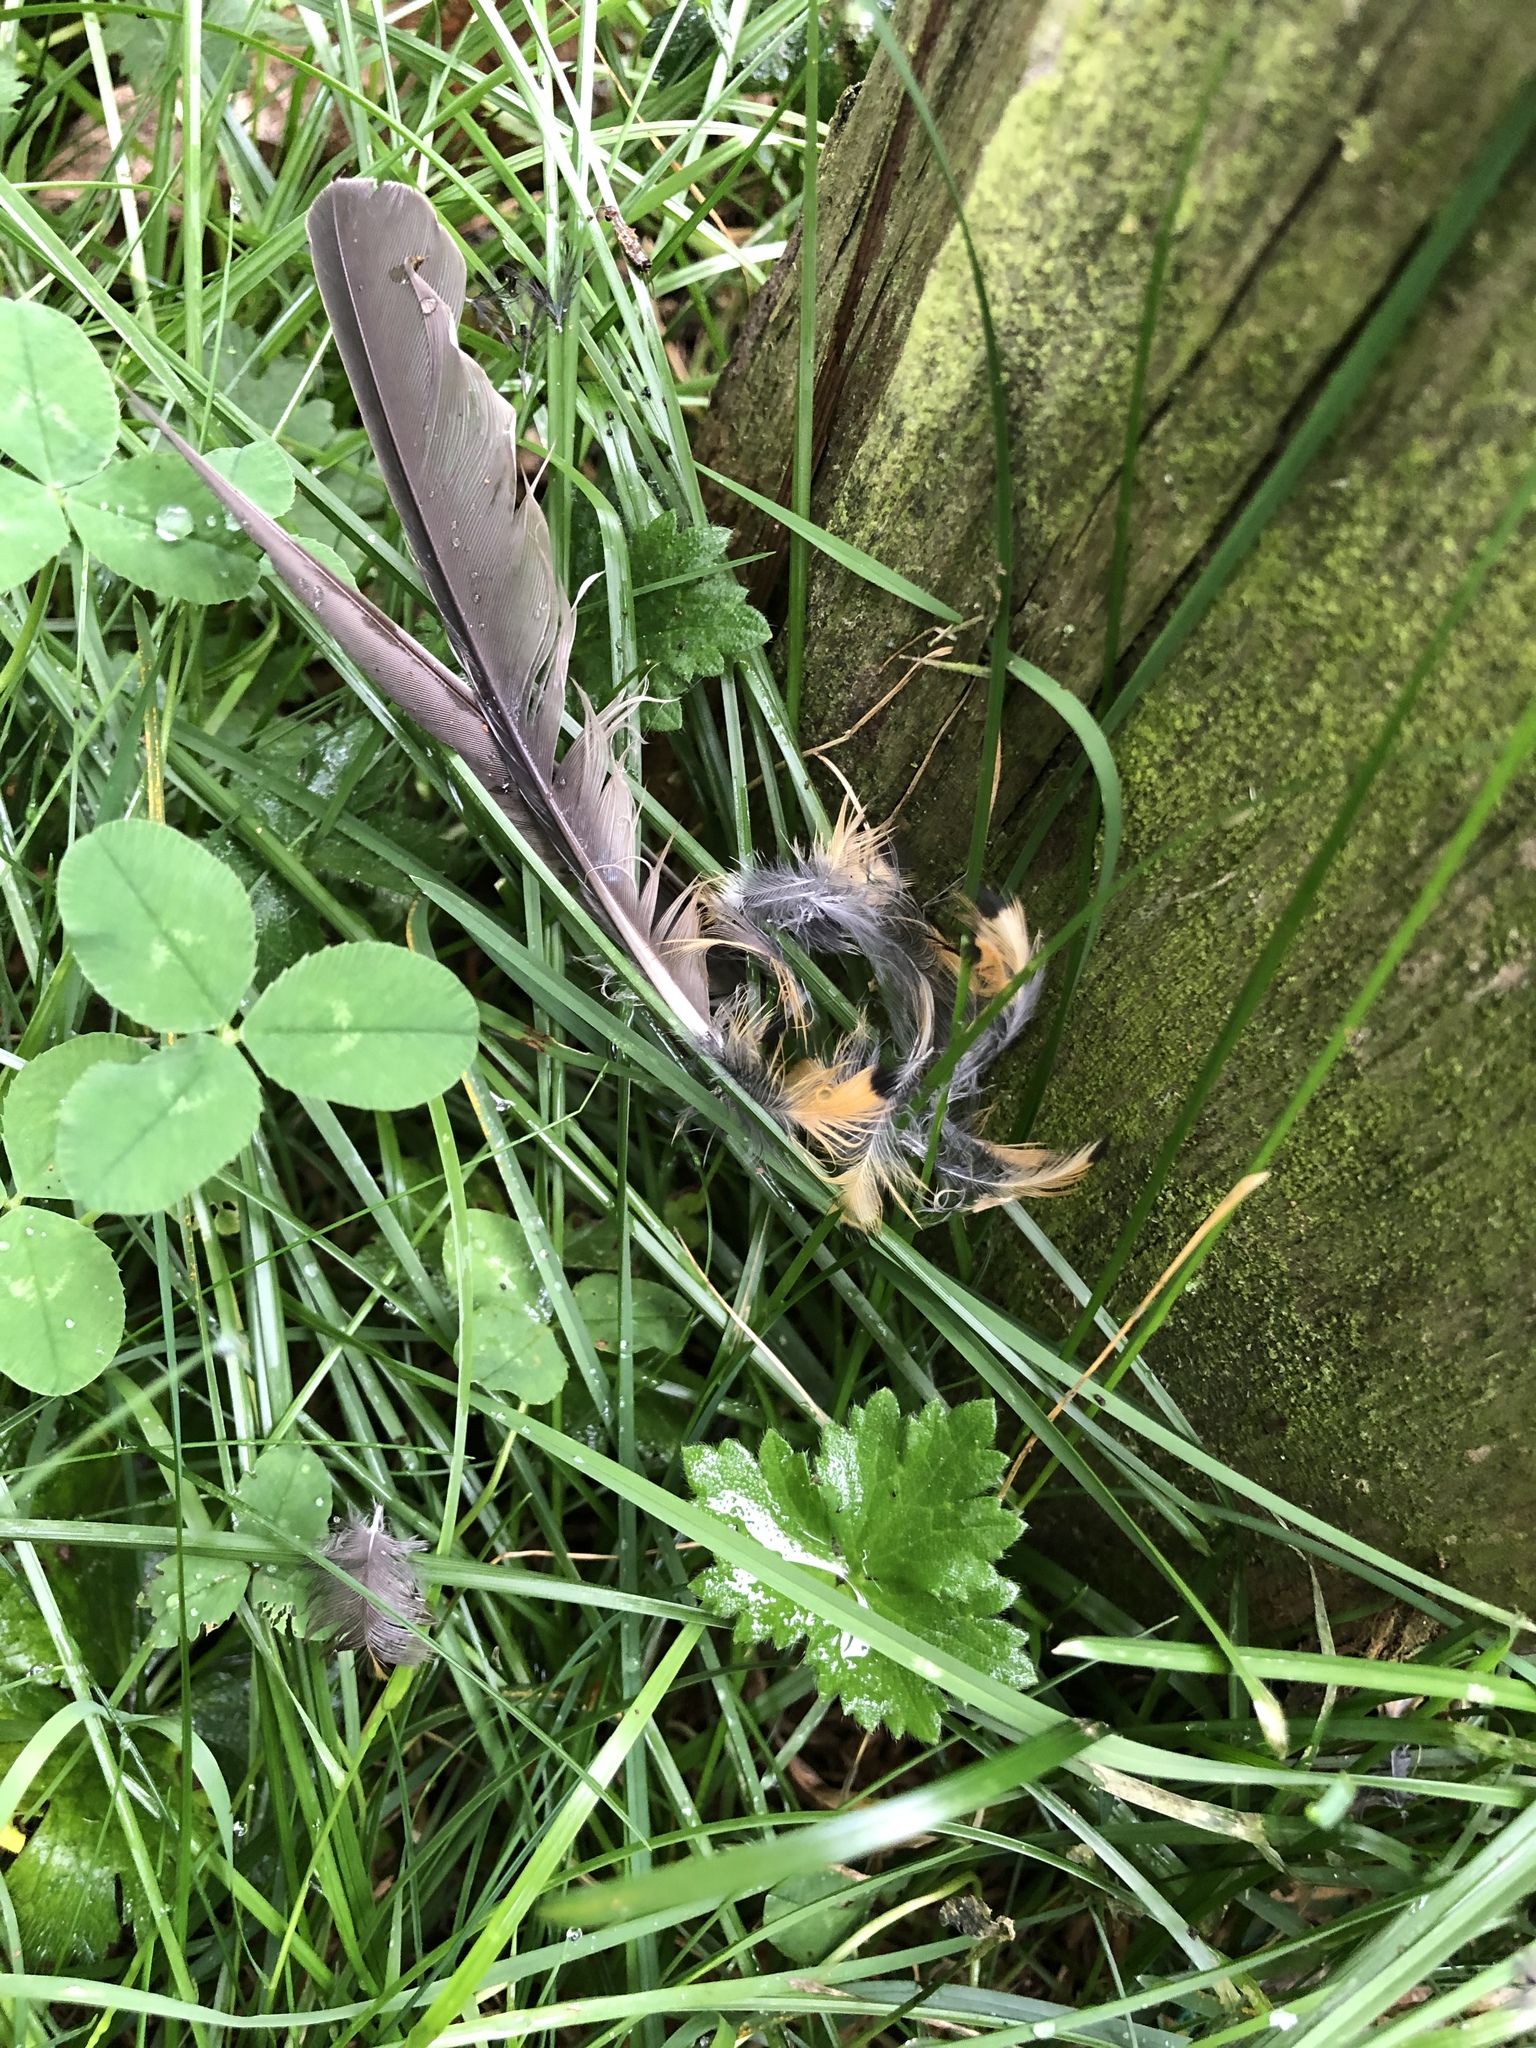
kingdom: Animalia
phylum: Chordata
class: Aves
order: Passeriformes
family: Turdidae
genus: Turdus
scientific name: Turdus migratorius
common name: American robin
